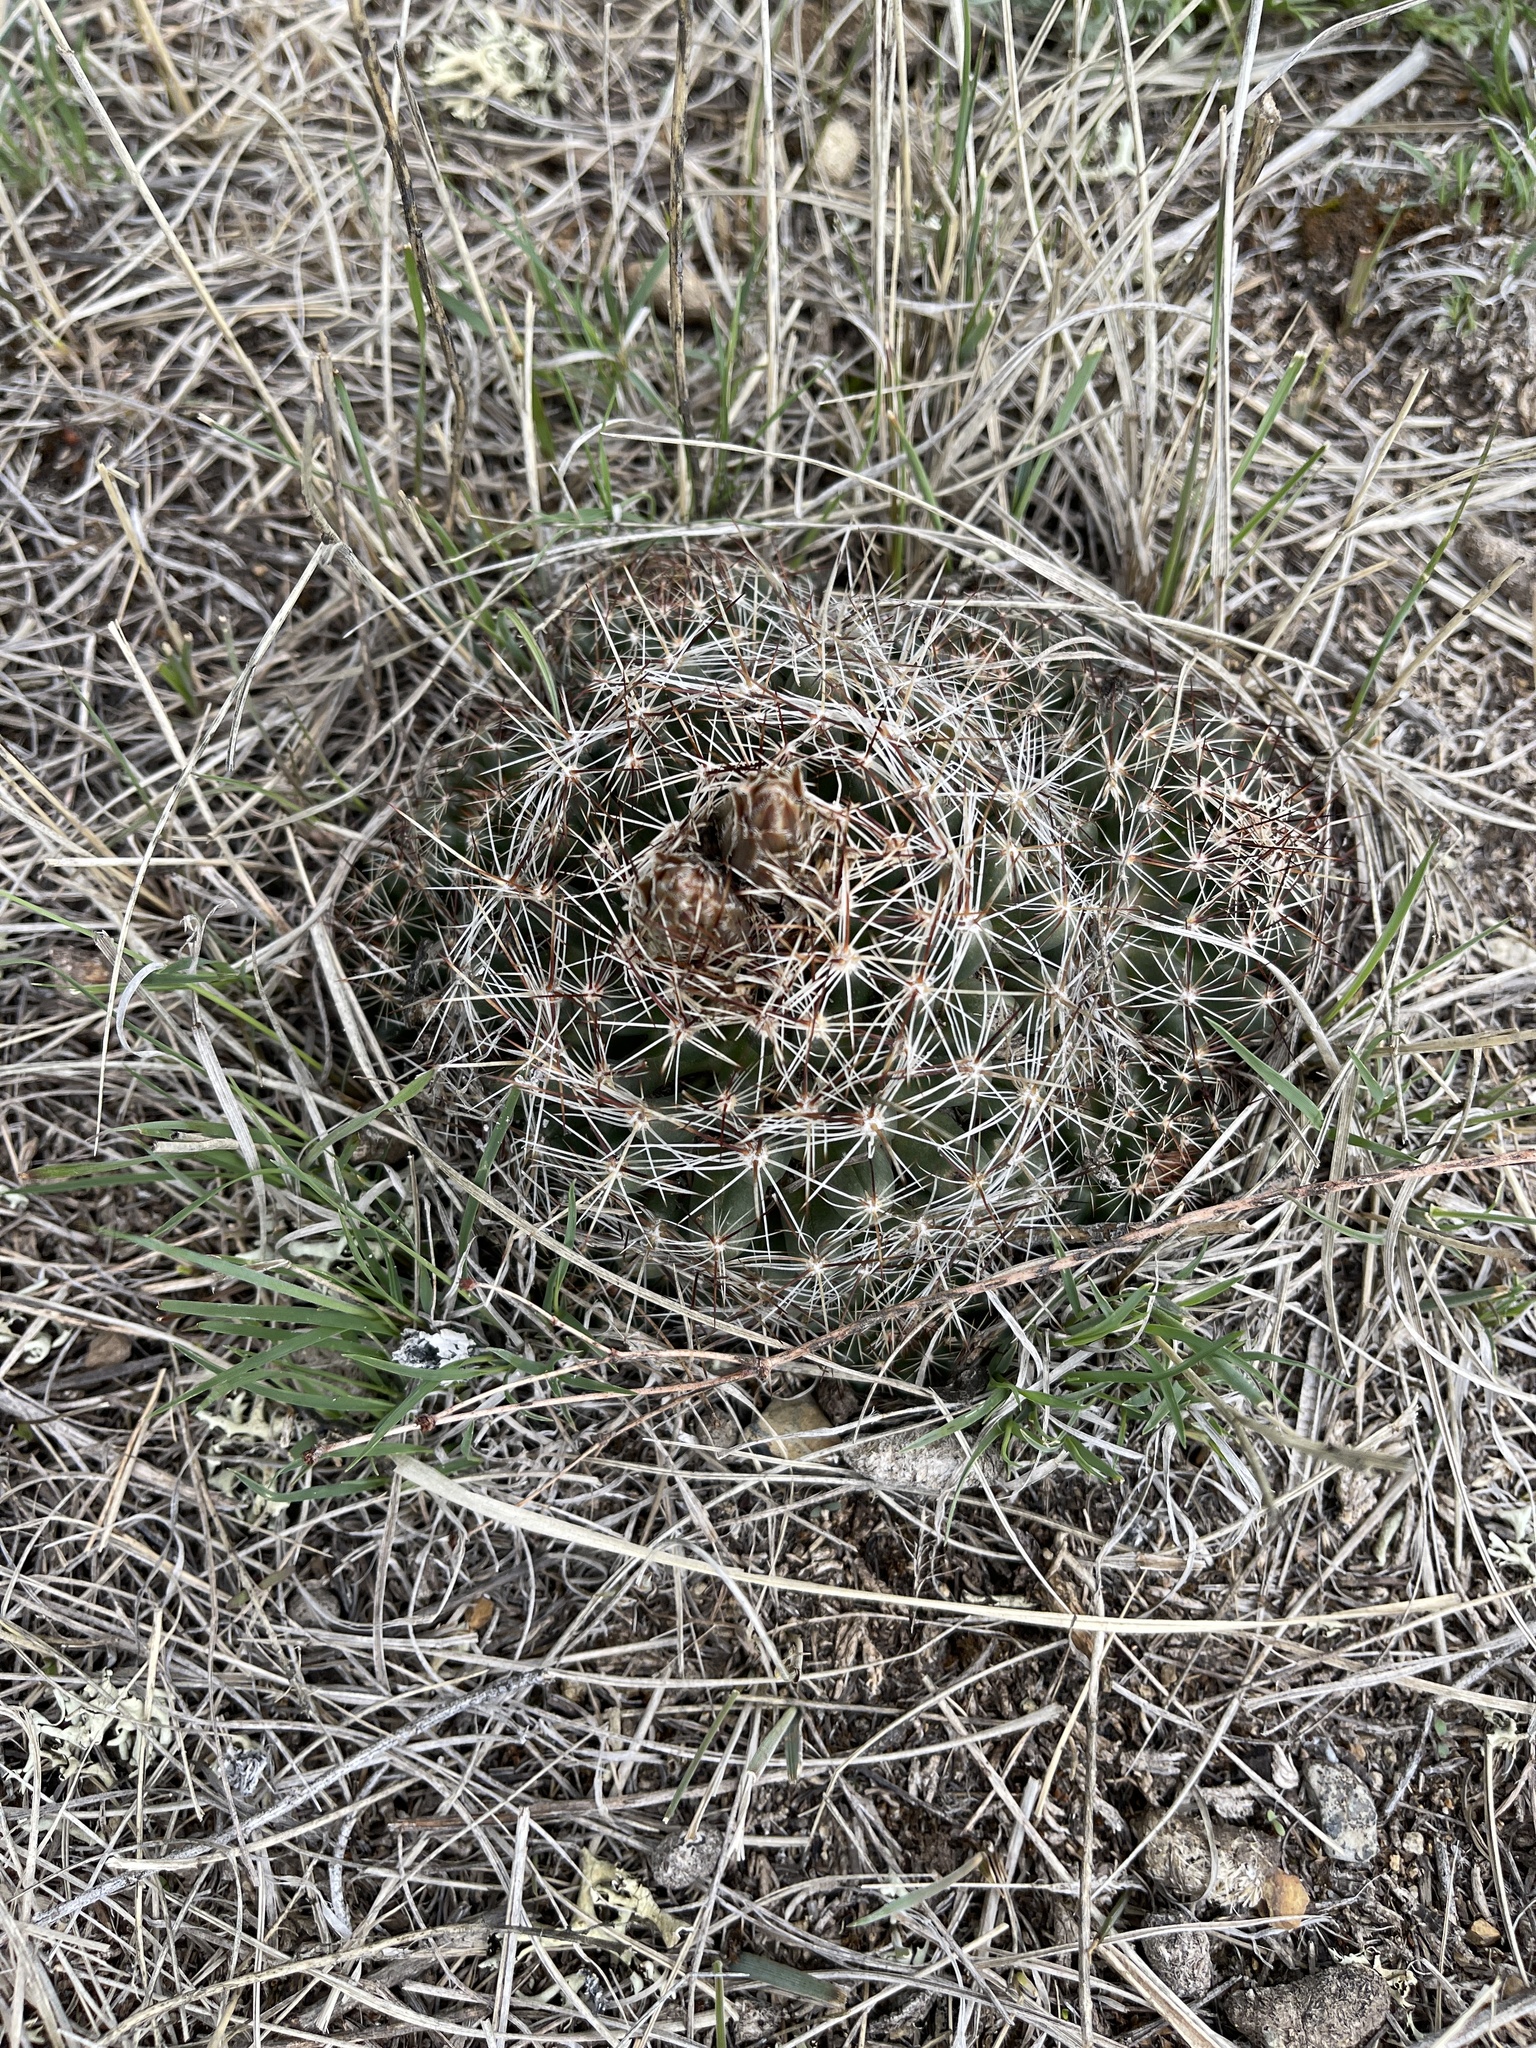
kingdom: Plantae
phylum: Tracheophyta
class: Magnoliopsida
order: Caryophyllales
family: Cactaceae
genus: Pelecyphora
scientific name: Pelecyphora vivipara
